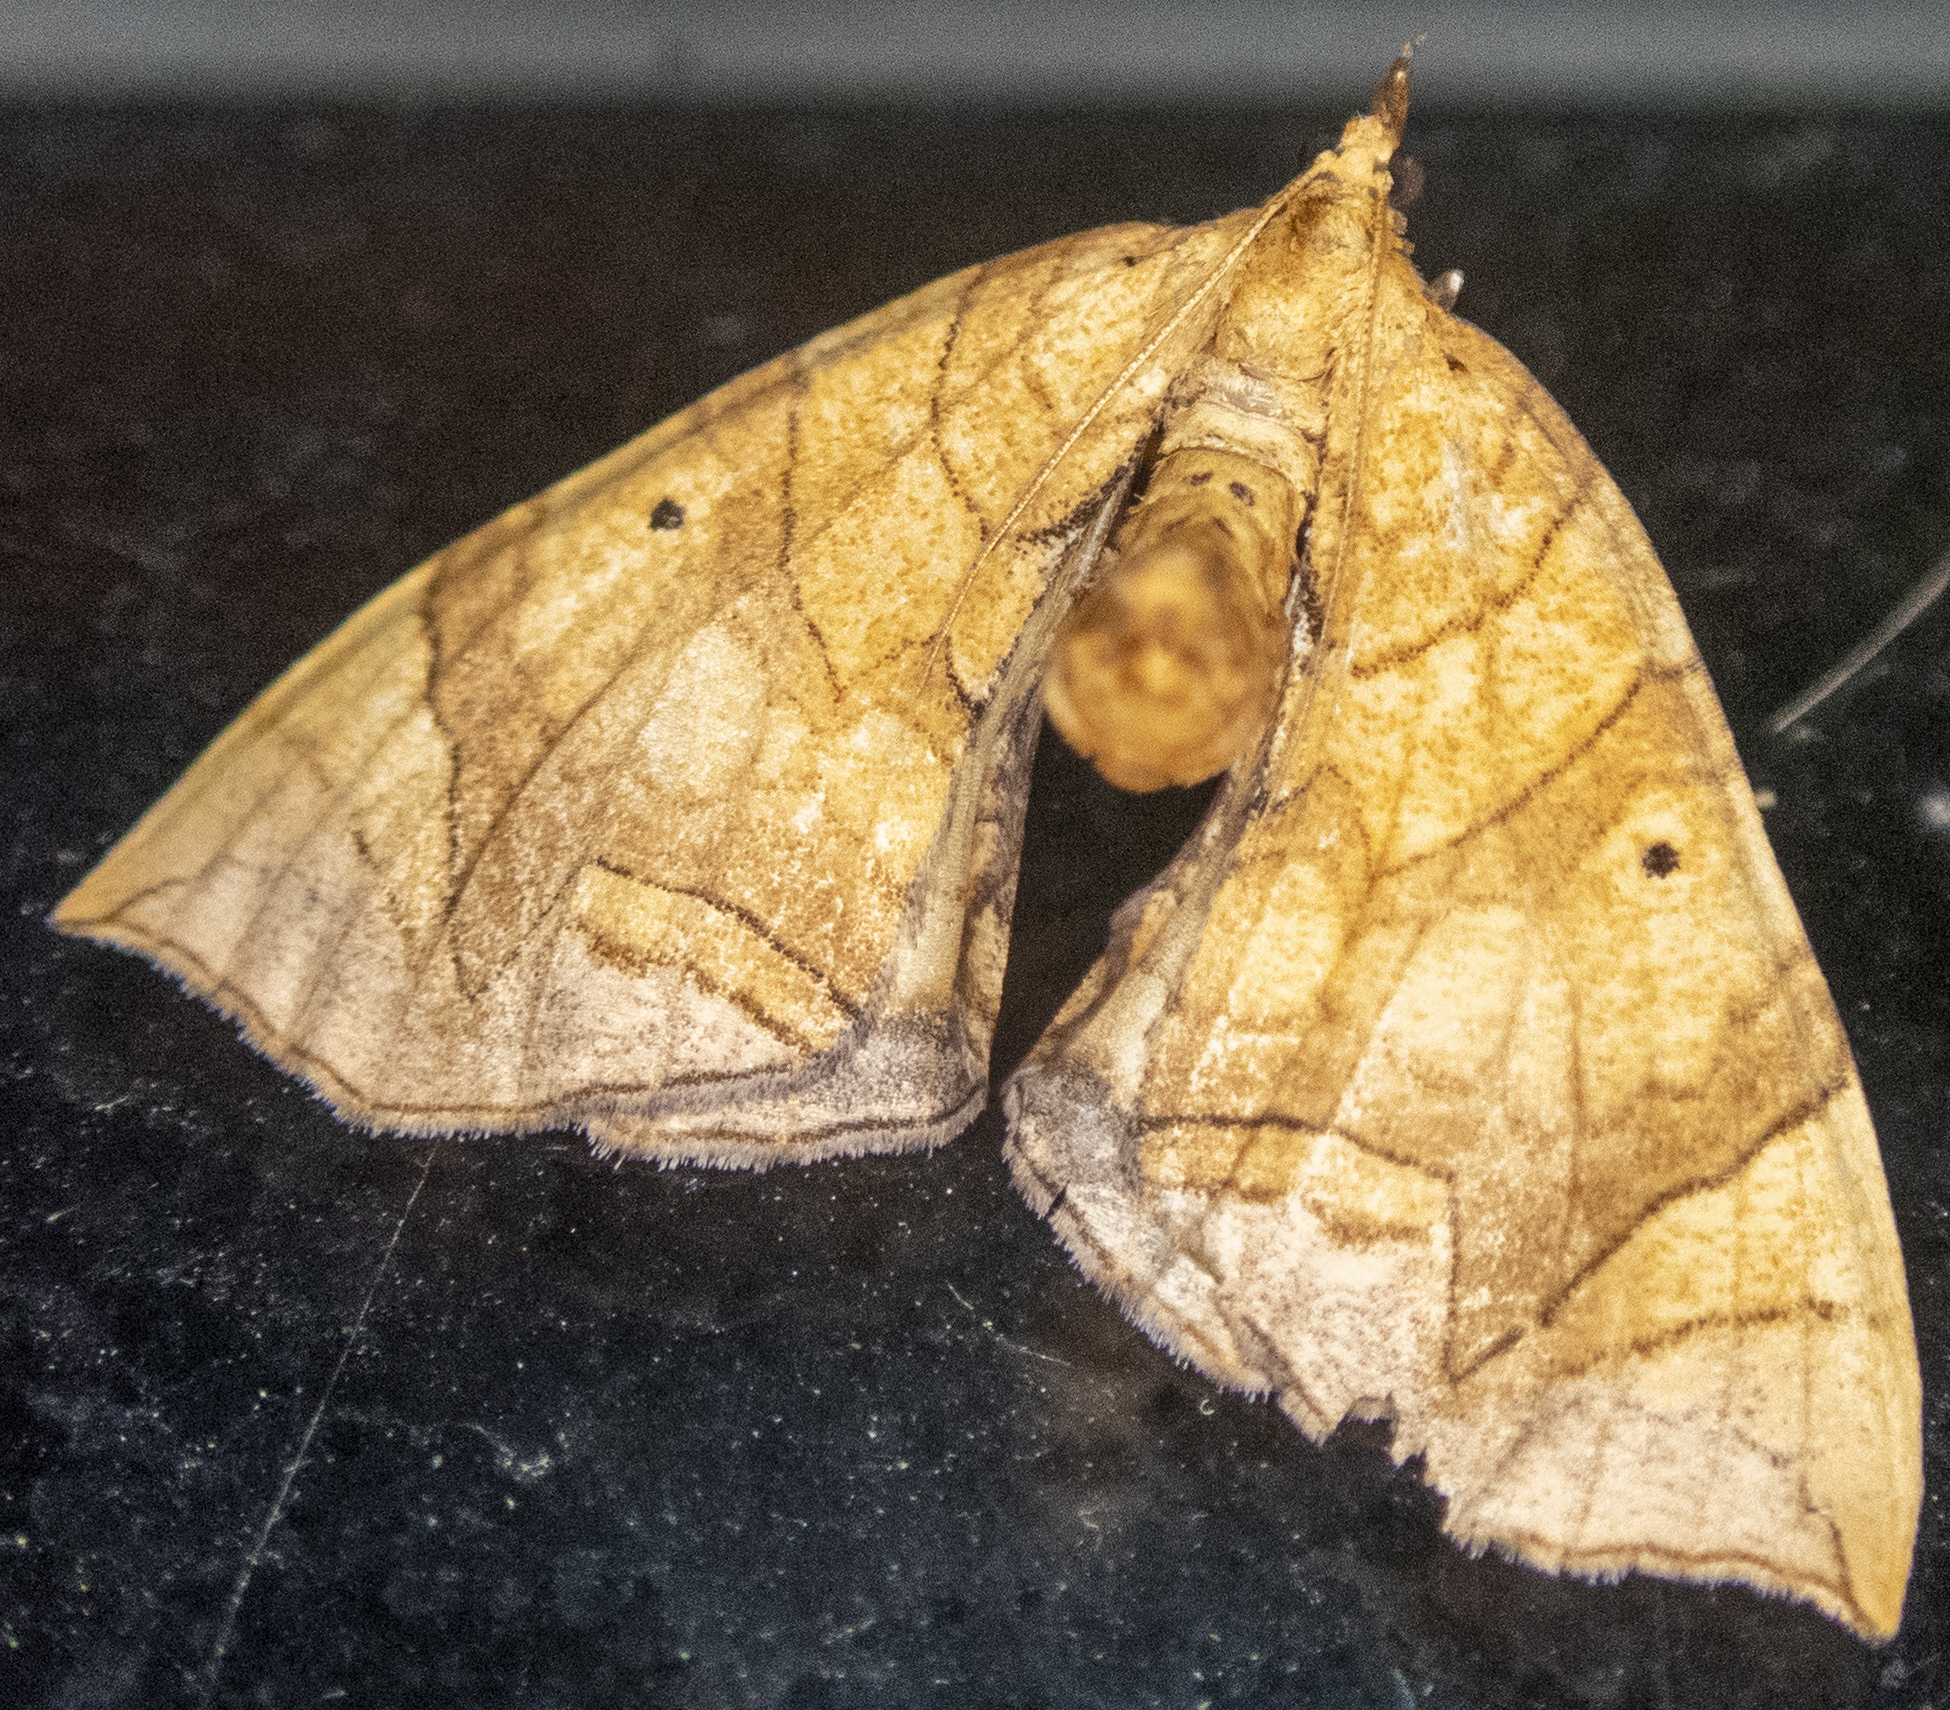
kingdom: Animalia
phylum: Arthropoda
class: Insecta
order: Lepidoptera
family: Geometridae
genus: Eulithis
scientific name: Eulithis gracilineata
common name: Greater grapevine looper moth
